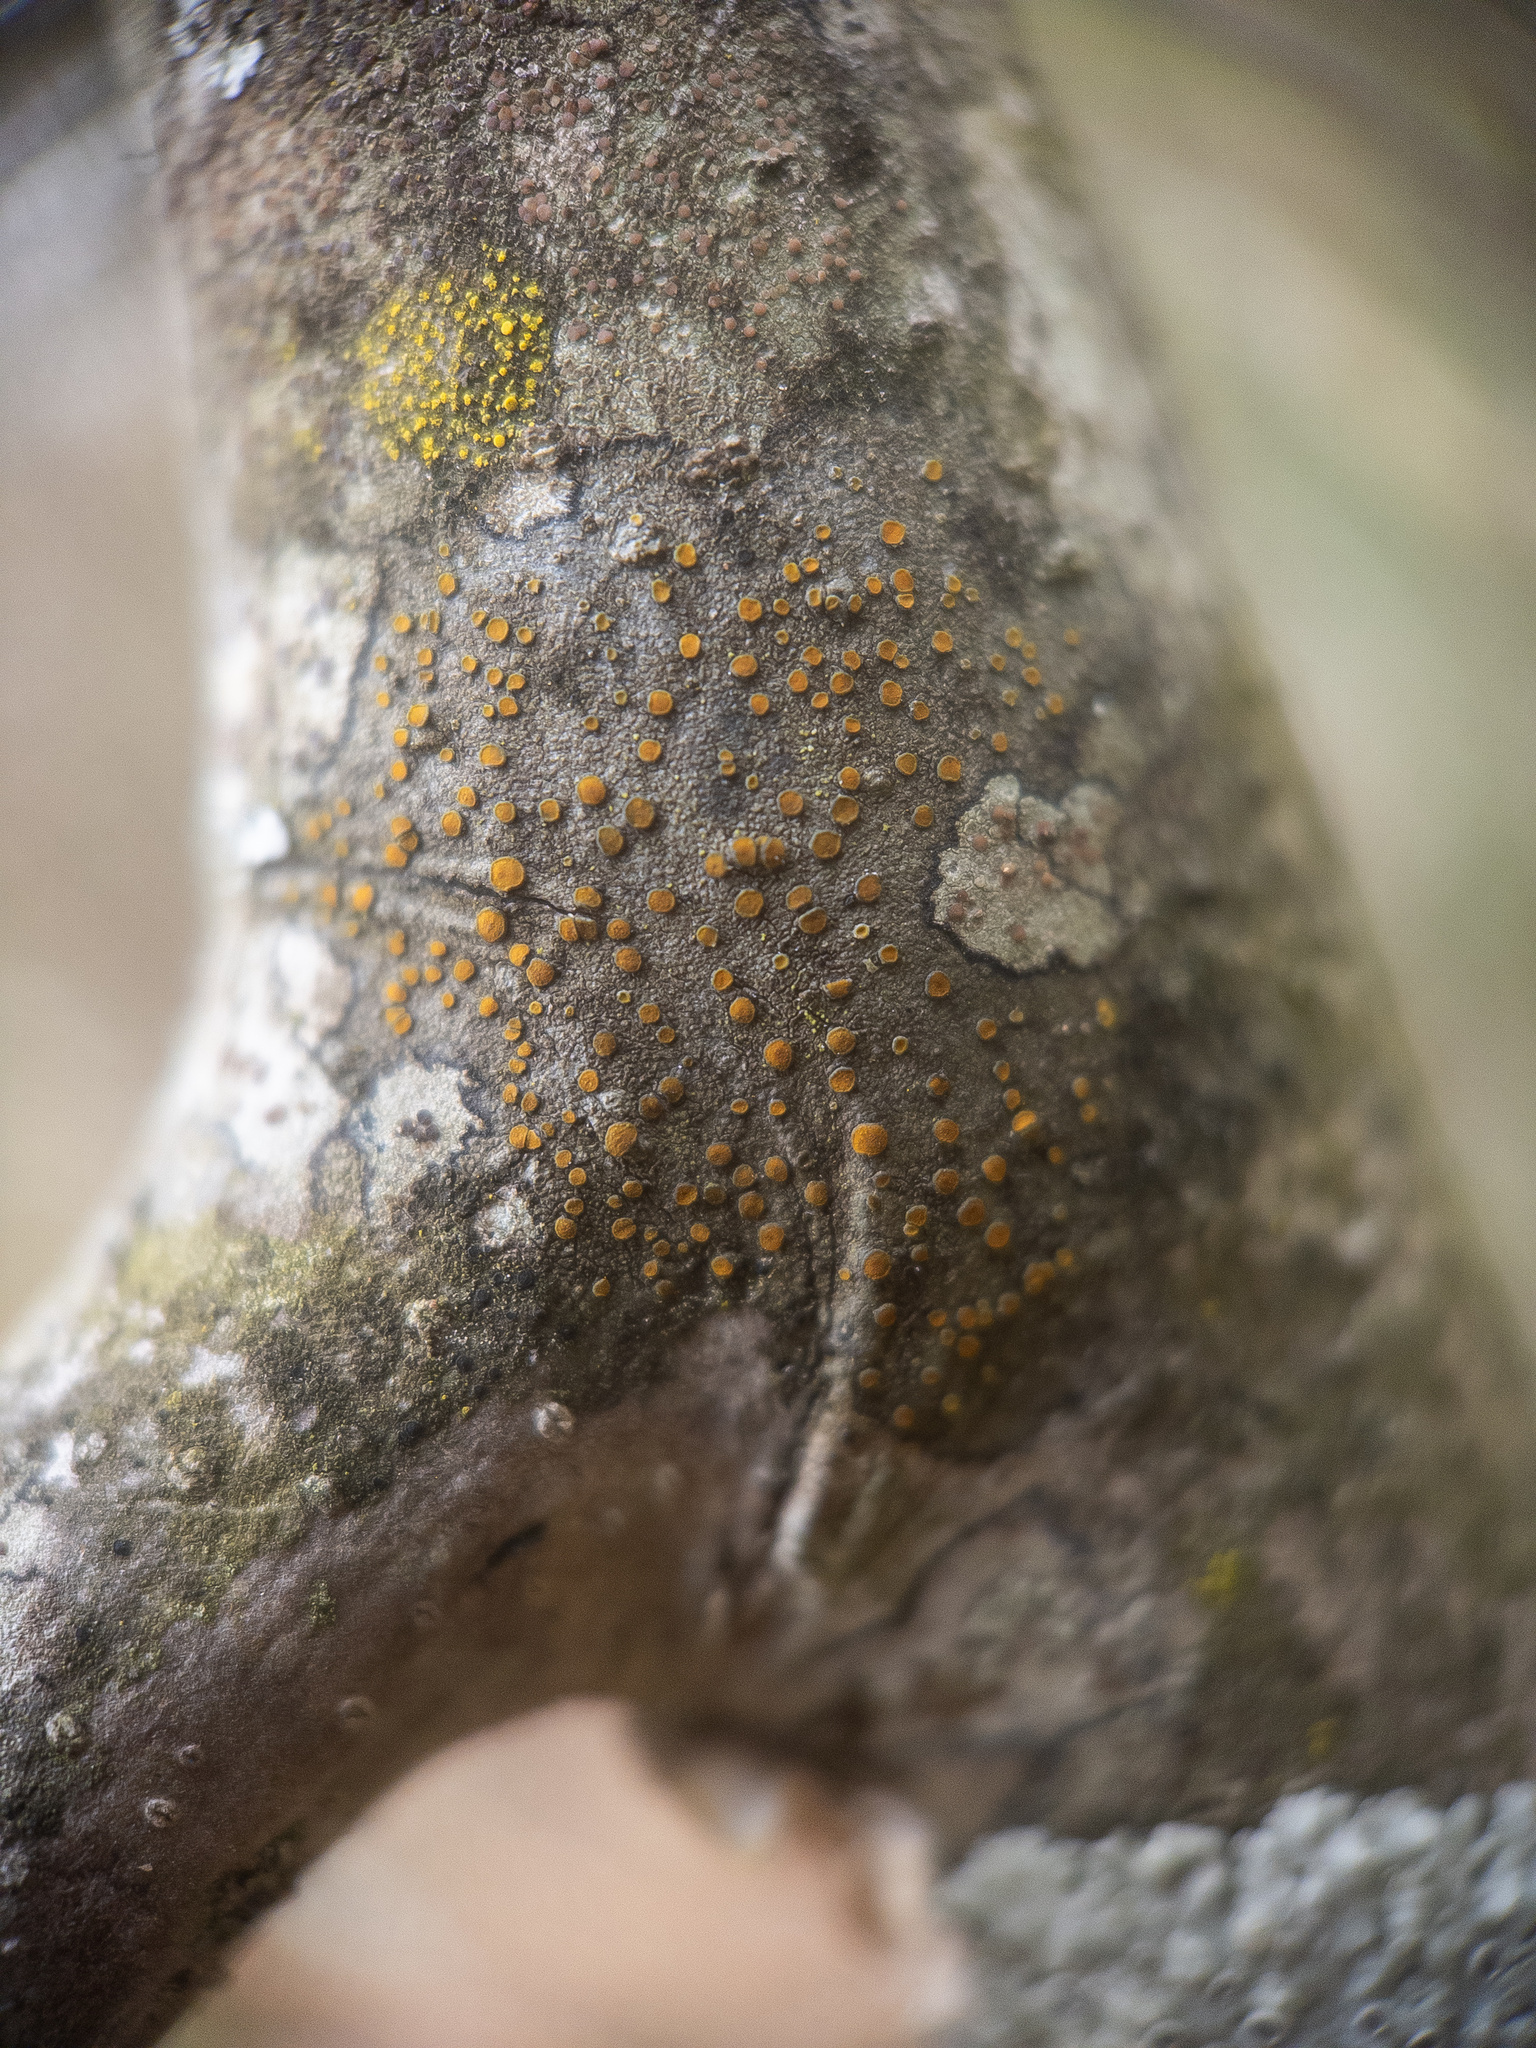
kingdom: Fungi
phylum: Ascomycota
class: Lecanoromycetes
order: Teloschistales
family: Teloschistaceae
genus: Caloplaca
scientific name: Caloplaca cerina
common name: Gray-rimmed firedot lichen
